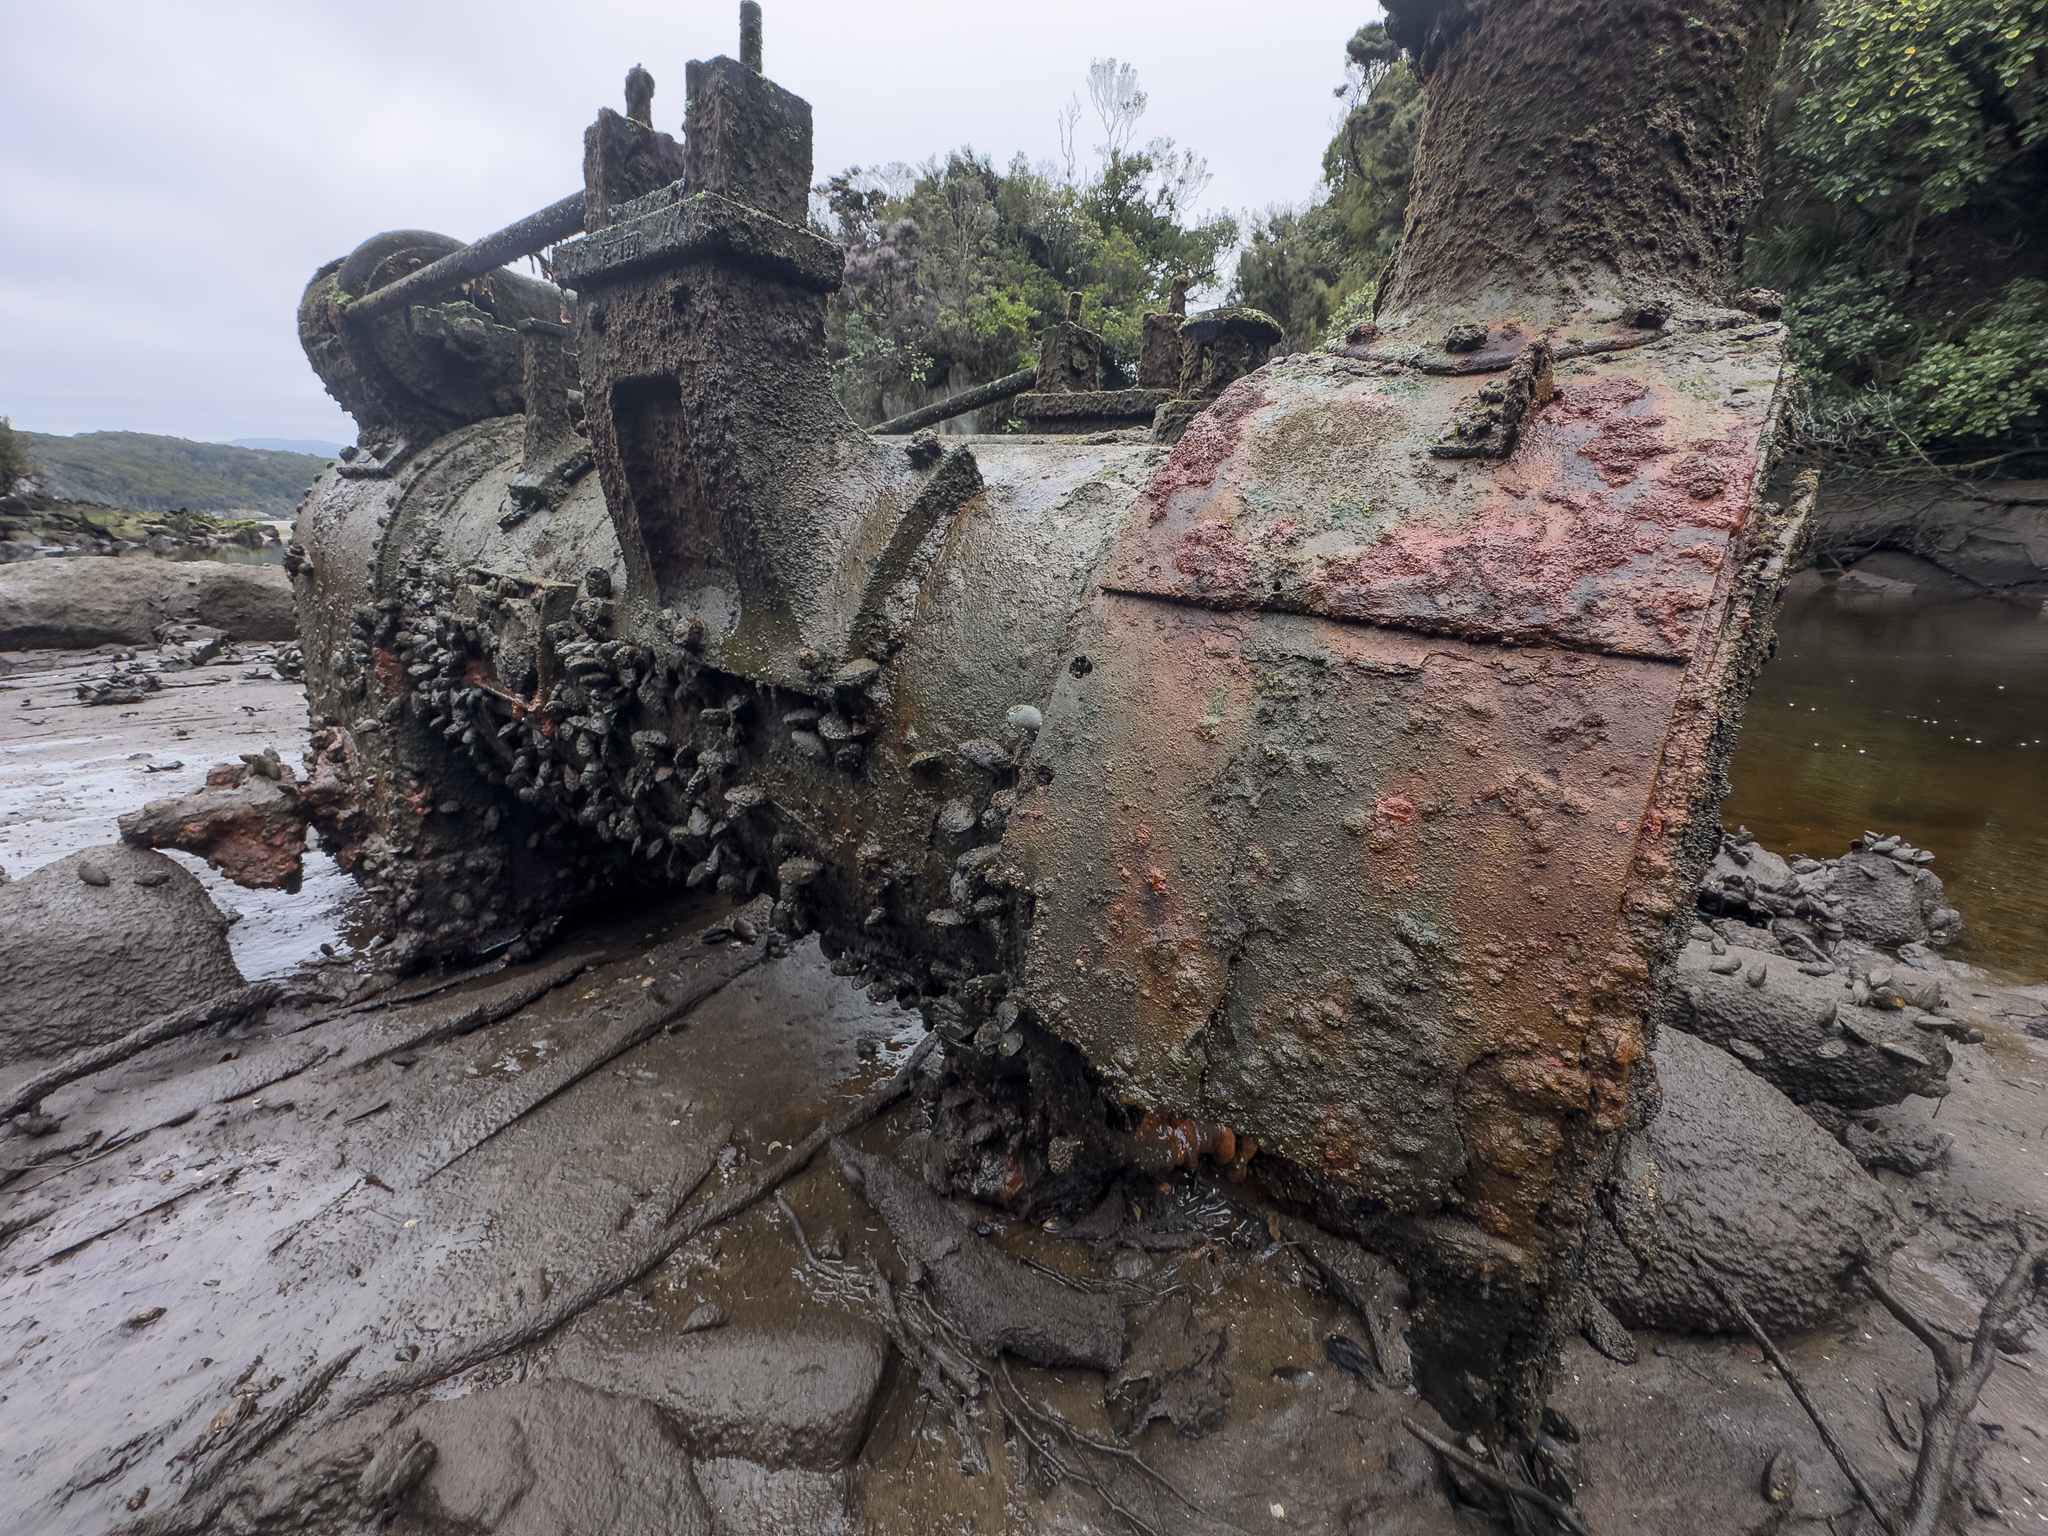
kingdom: Animalia
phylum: Mollusca
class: Bivalvia
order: Mytilida
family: Mytilidae
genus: Mytilus
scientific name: Mytilus planulatus
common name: Australian mussel
